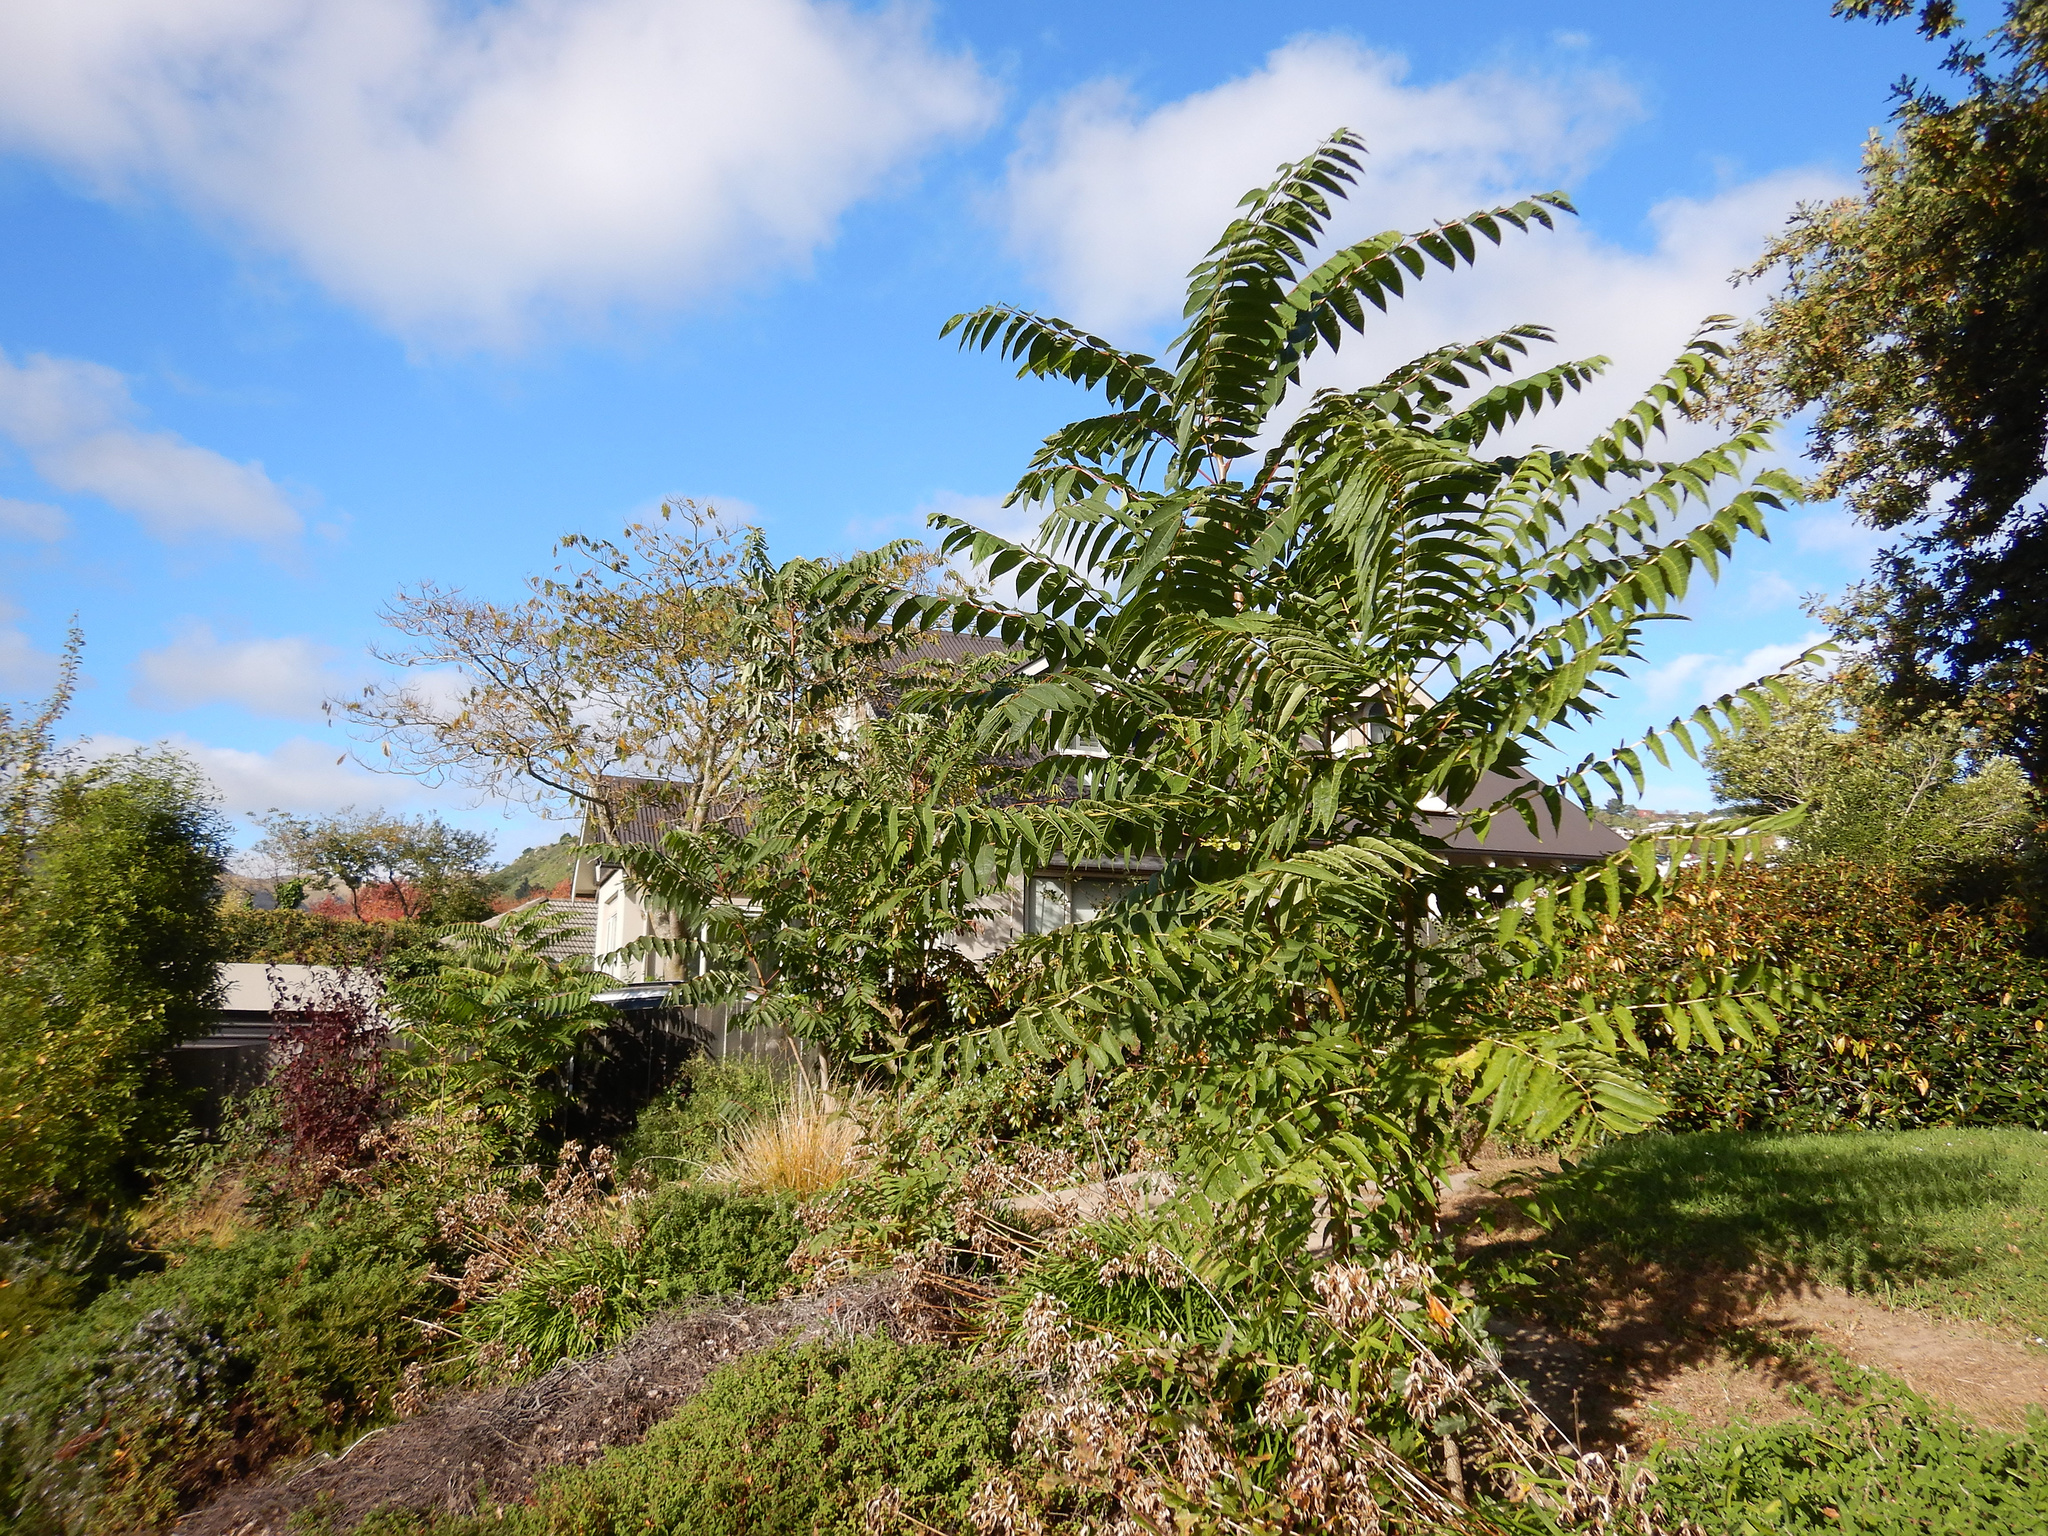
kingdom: Plantae
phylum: Tracheophyta
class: Magnoliopsida
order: Sapindales
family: Simaroubaceae
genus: Ailanthus
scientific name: Ailanthus altissima
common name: Tree-of-heaven
